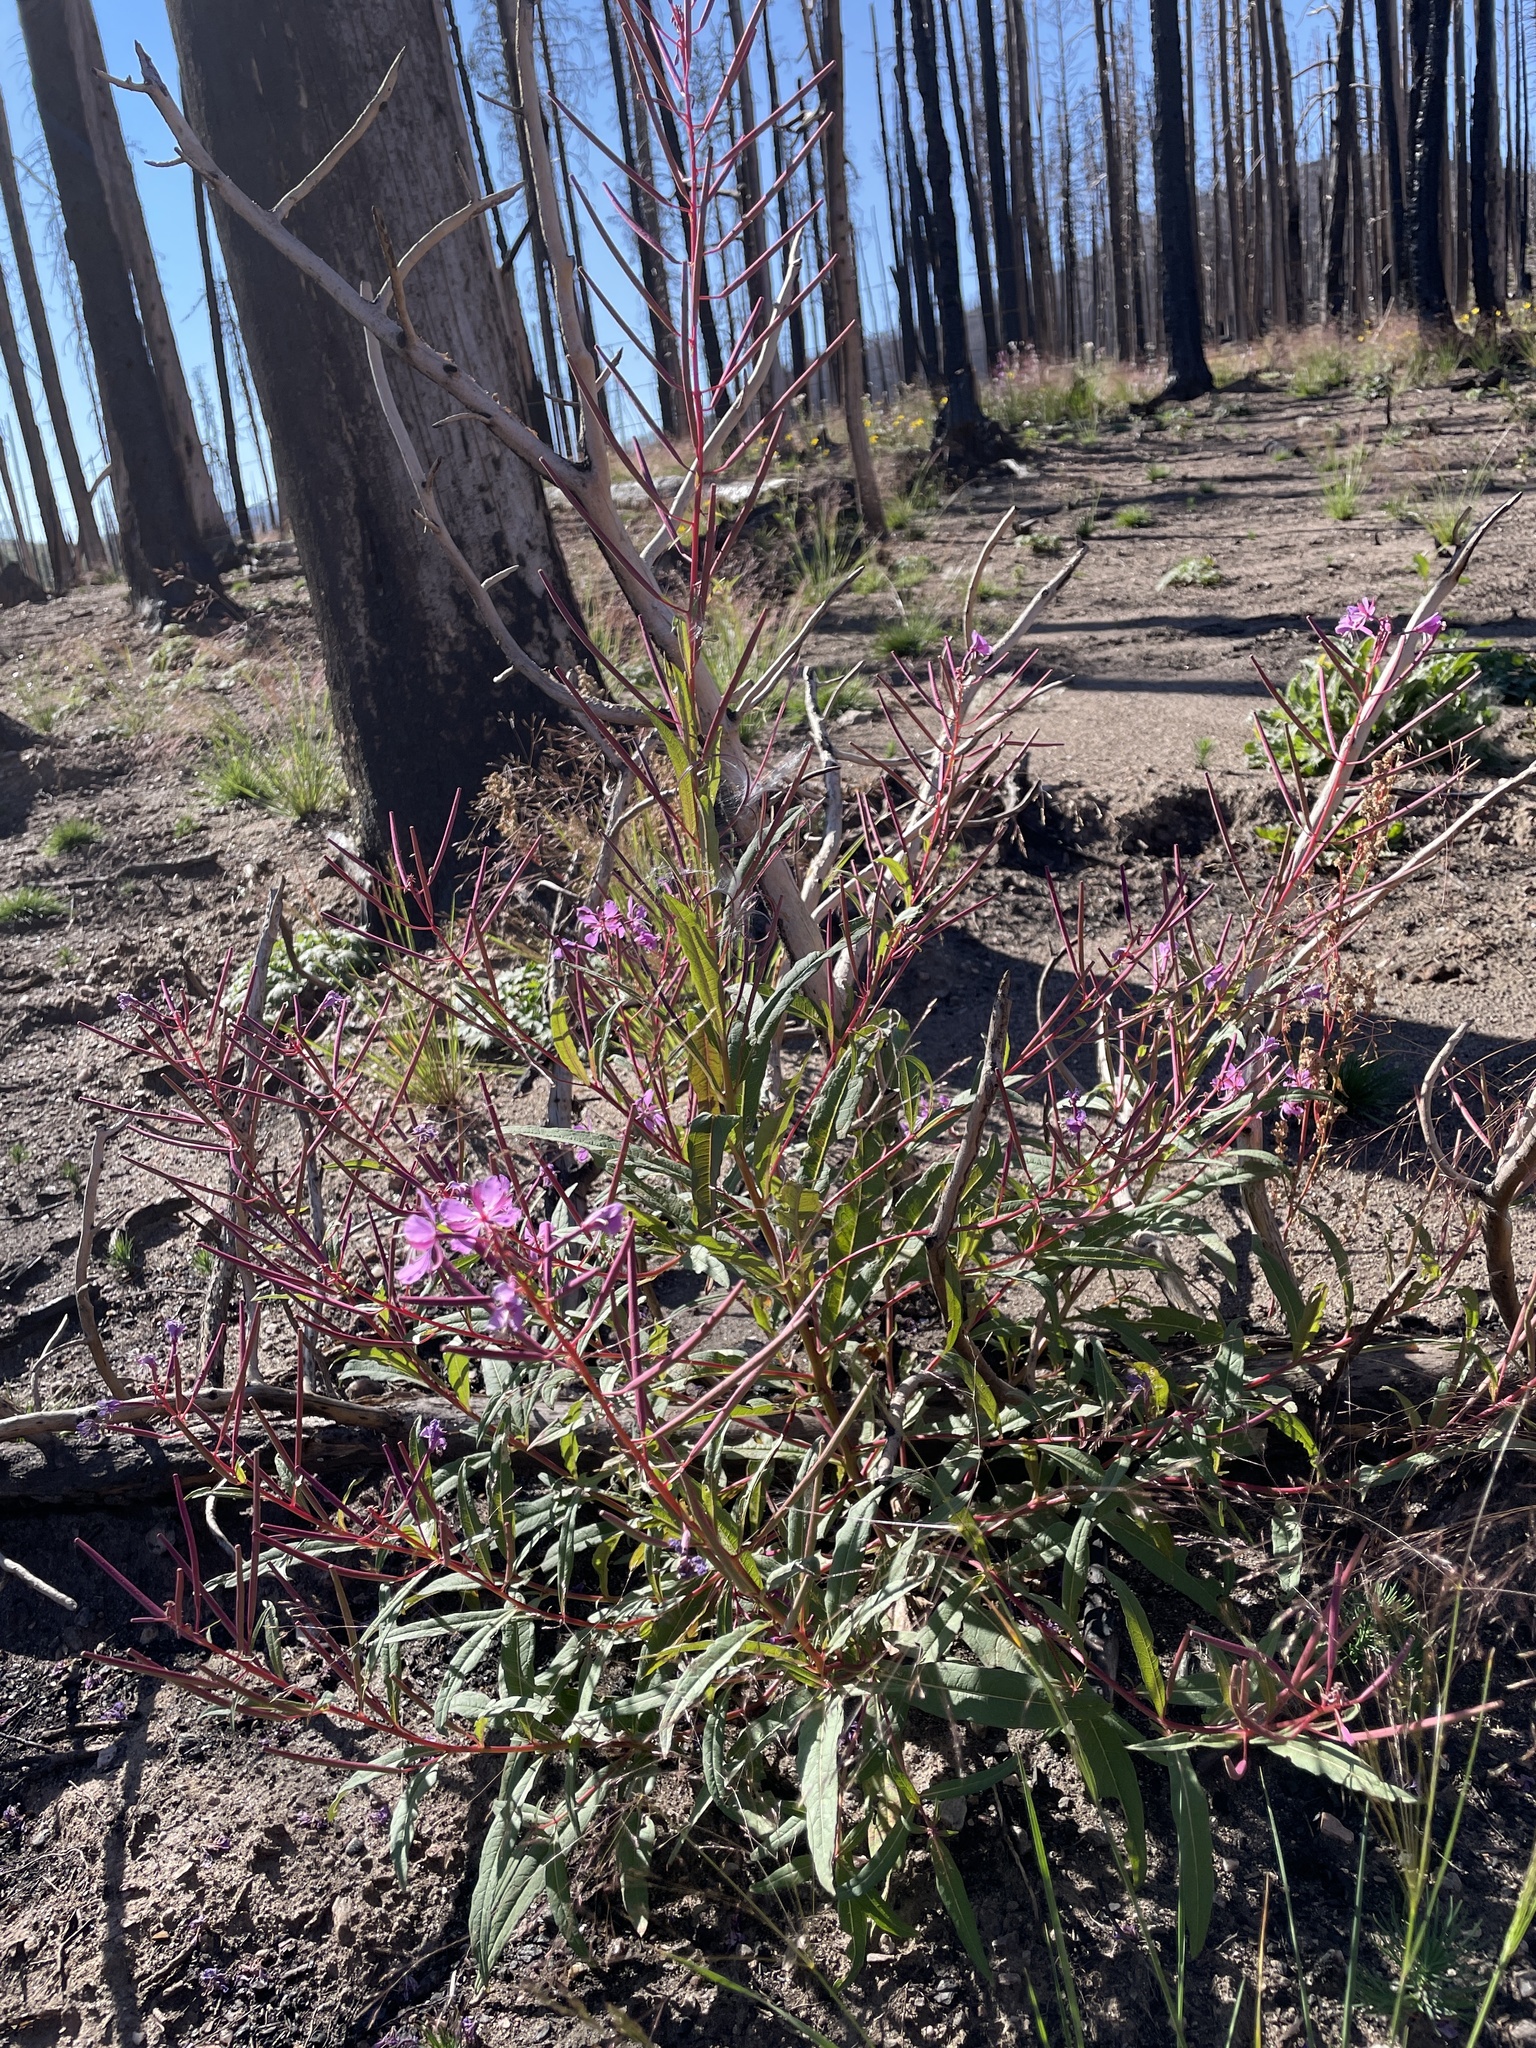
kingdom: Plantae
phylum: Tracheophyta
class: Magnoliopsida
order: Myrtales
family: Onagraceae
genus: Chamaenerion
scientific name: Chamaenerion angustifolium
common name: Fireweed
